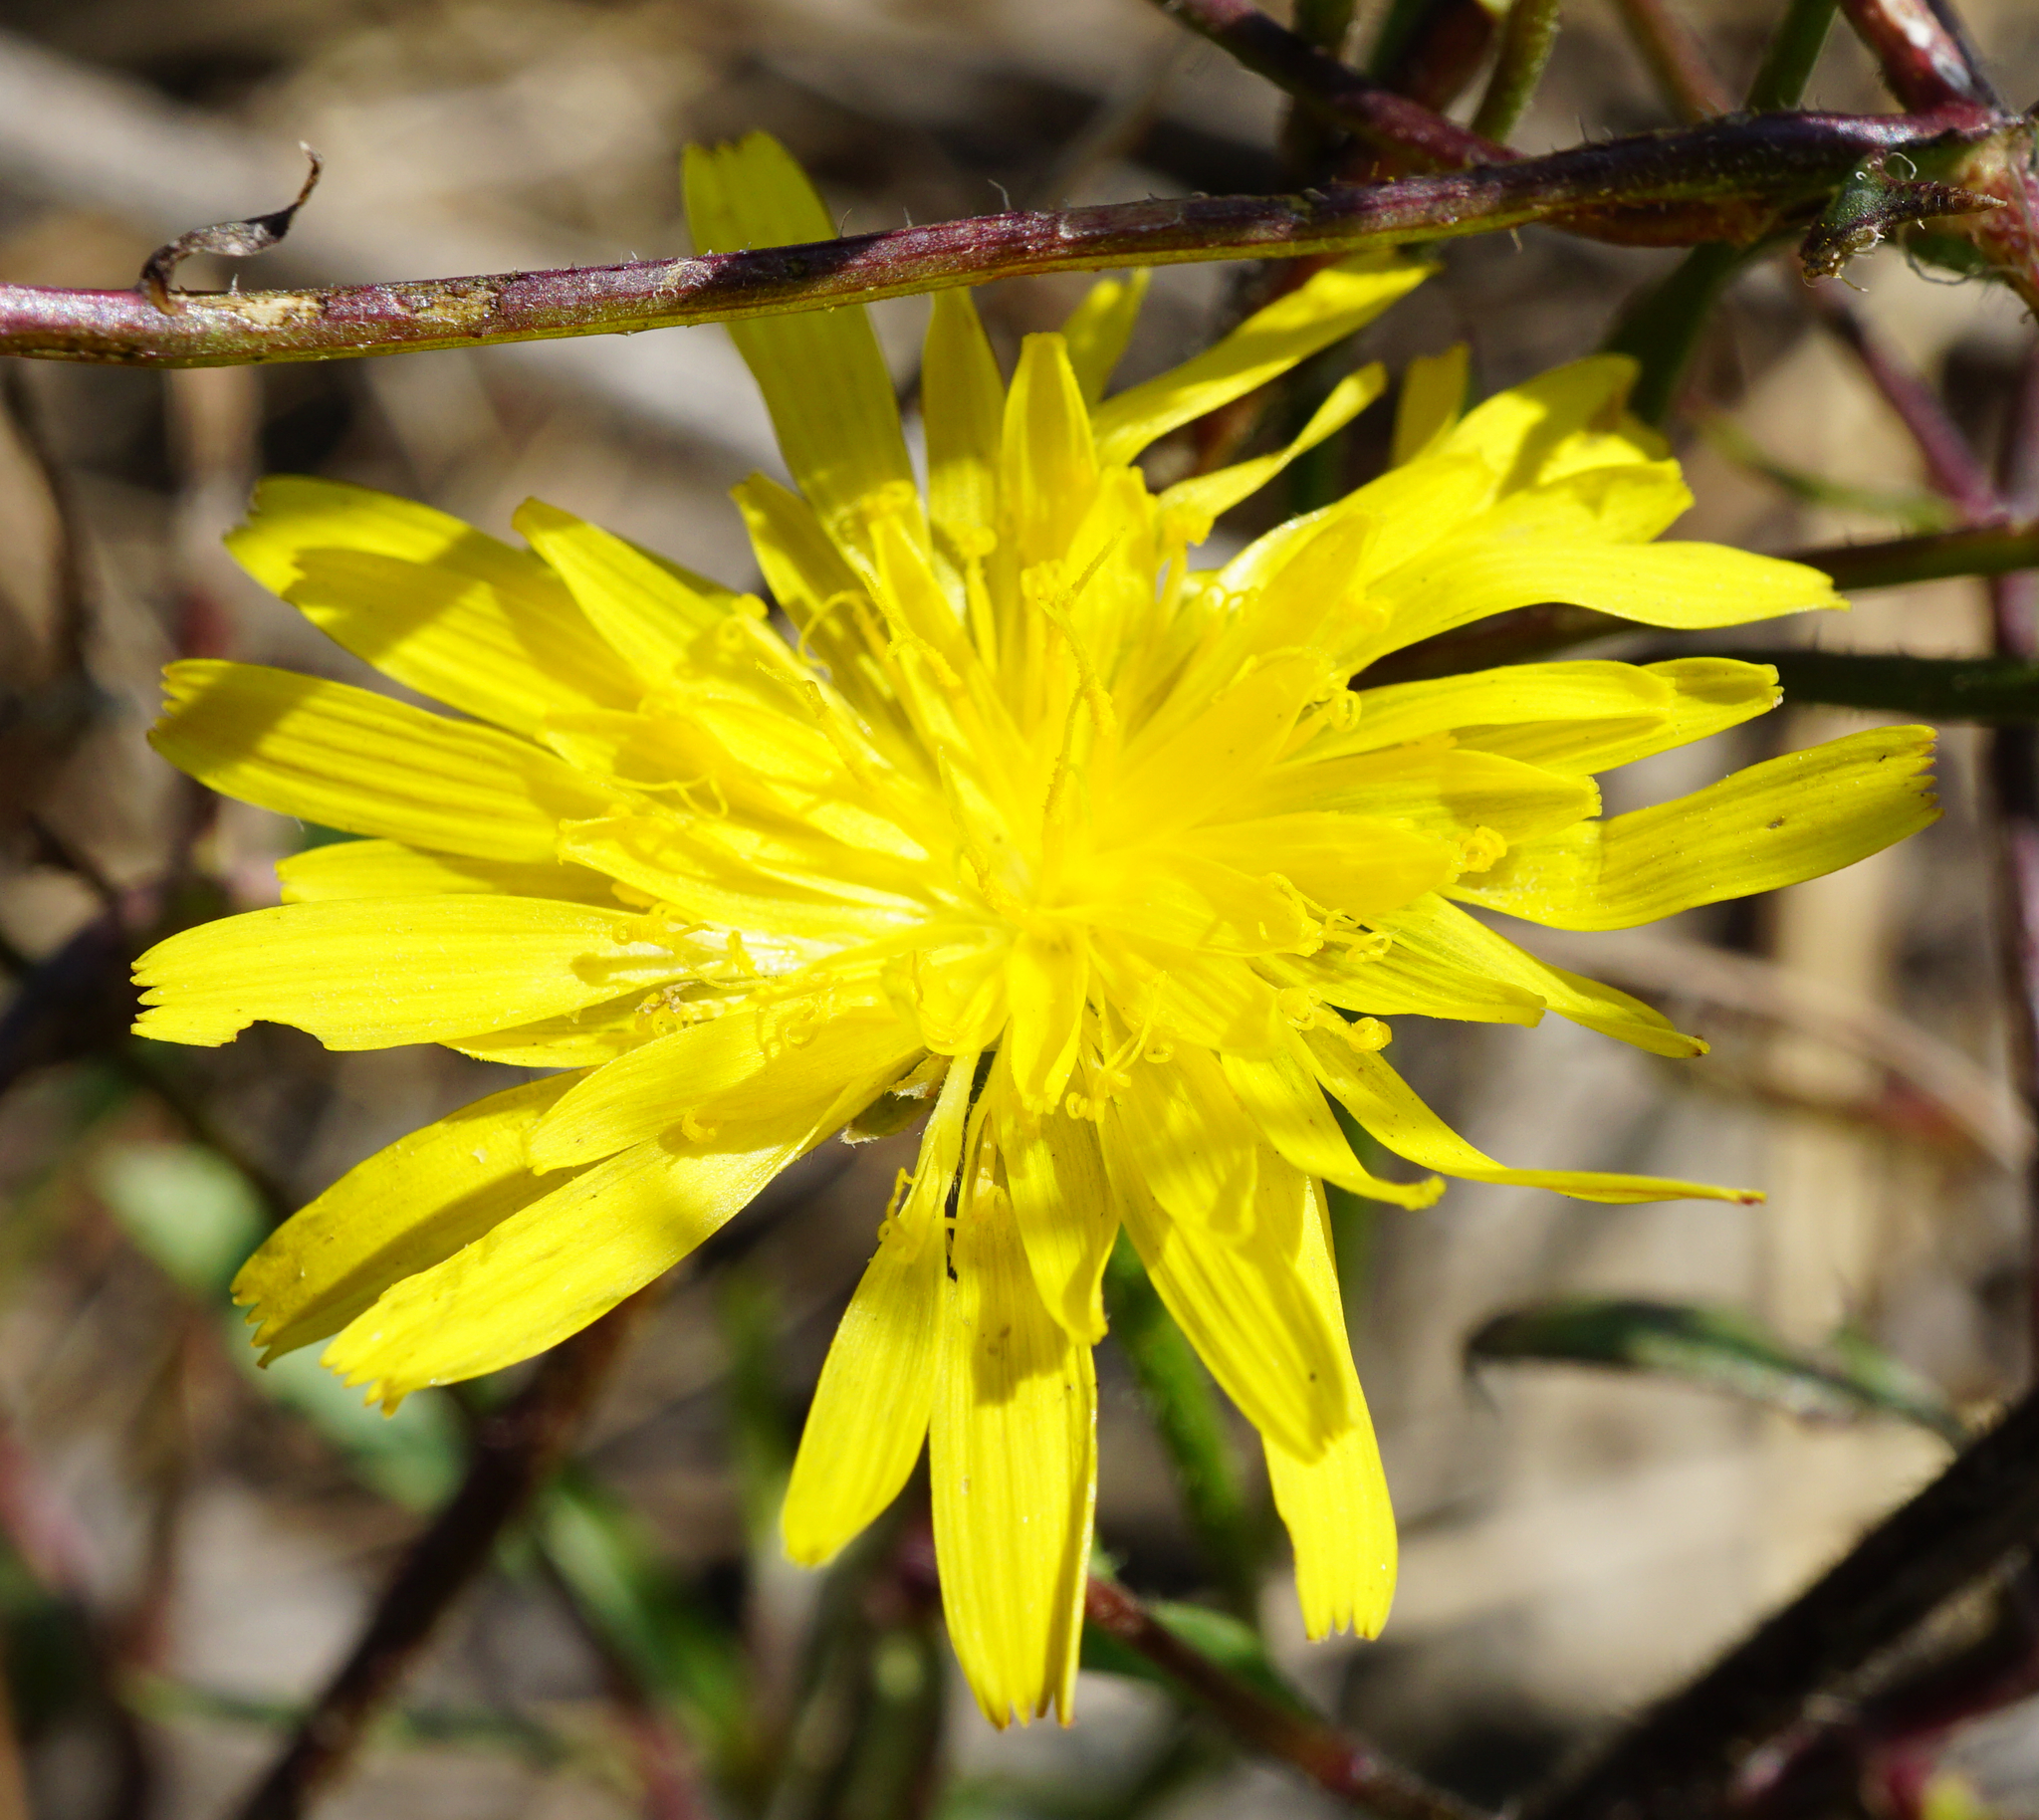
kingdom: Plantae
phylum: Tracheophyta
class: Magnoliopsida
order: Asterales
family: Asteraceae
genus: Crepis
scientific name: Crepis foetida
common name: Stinking hawk's-beard
